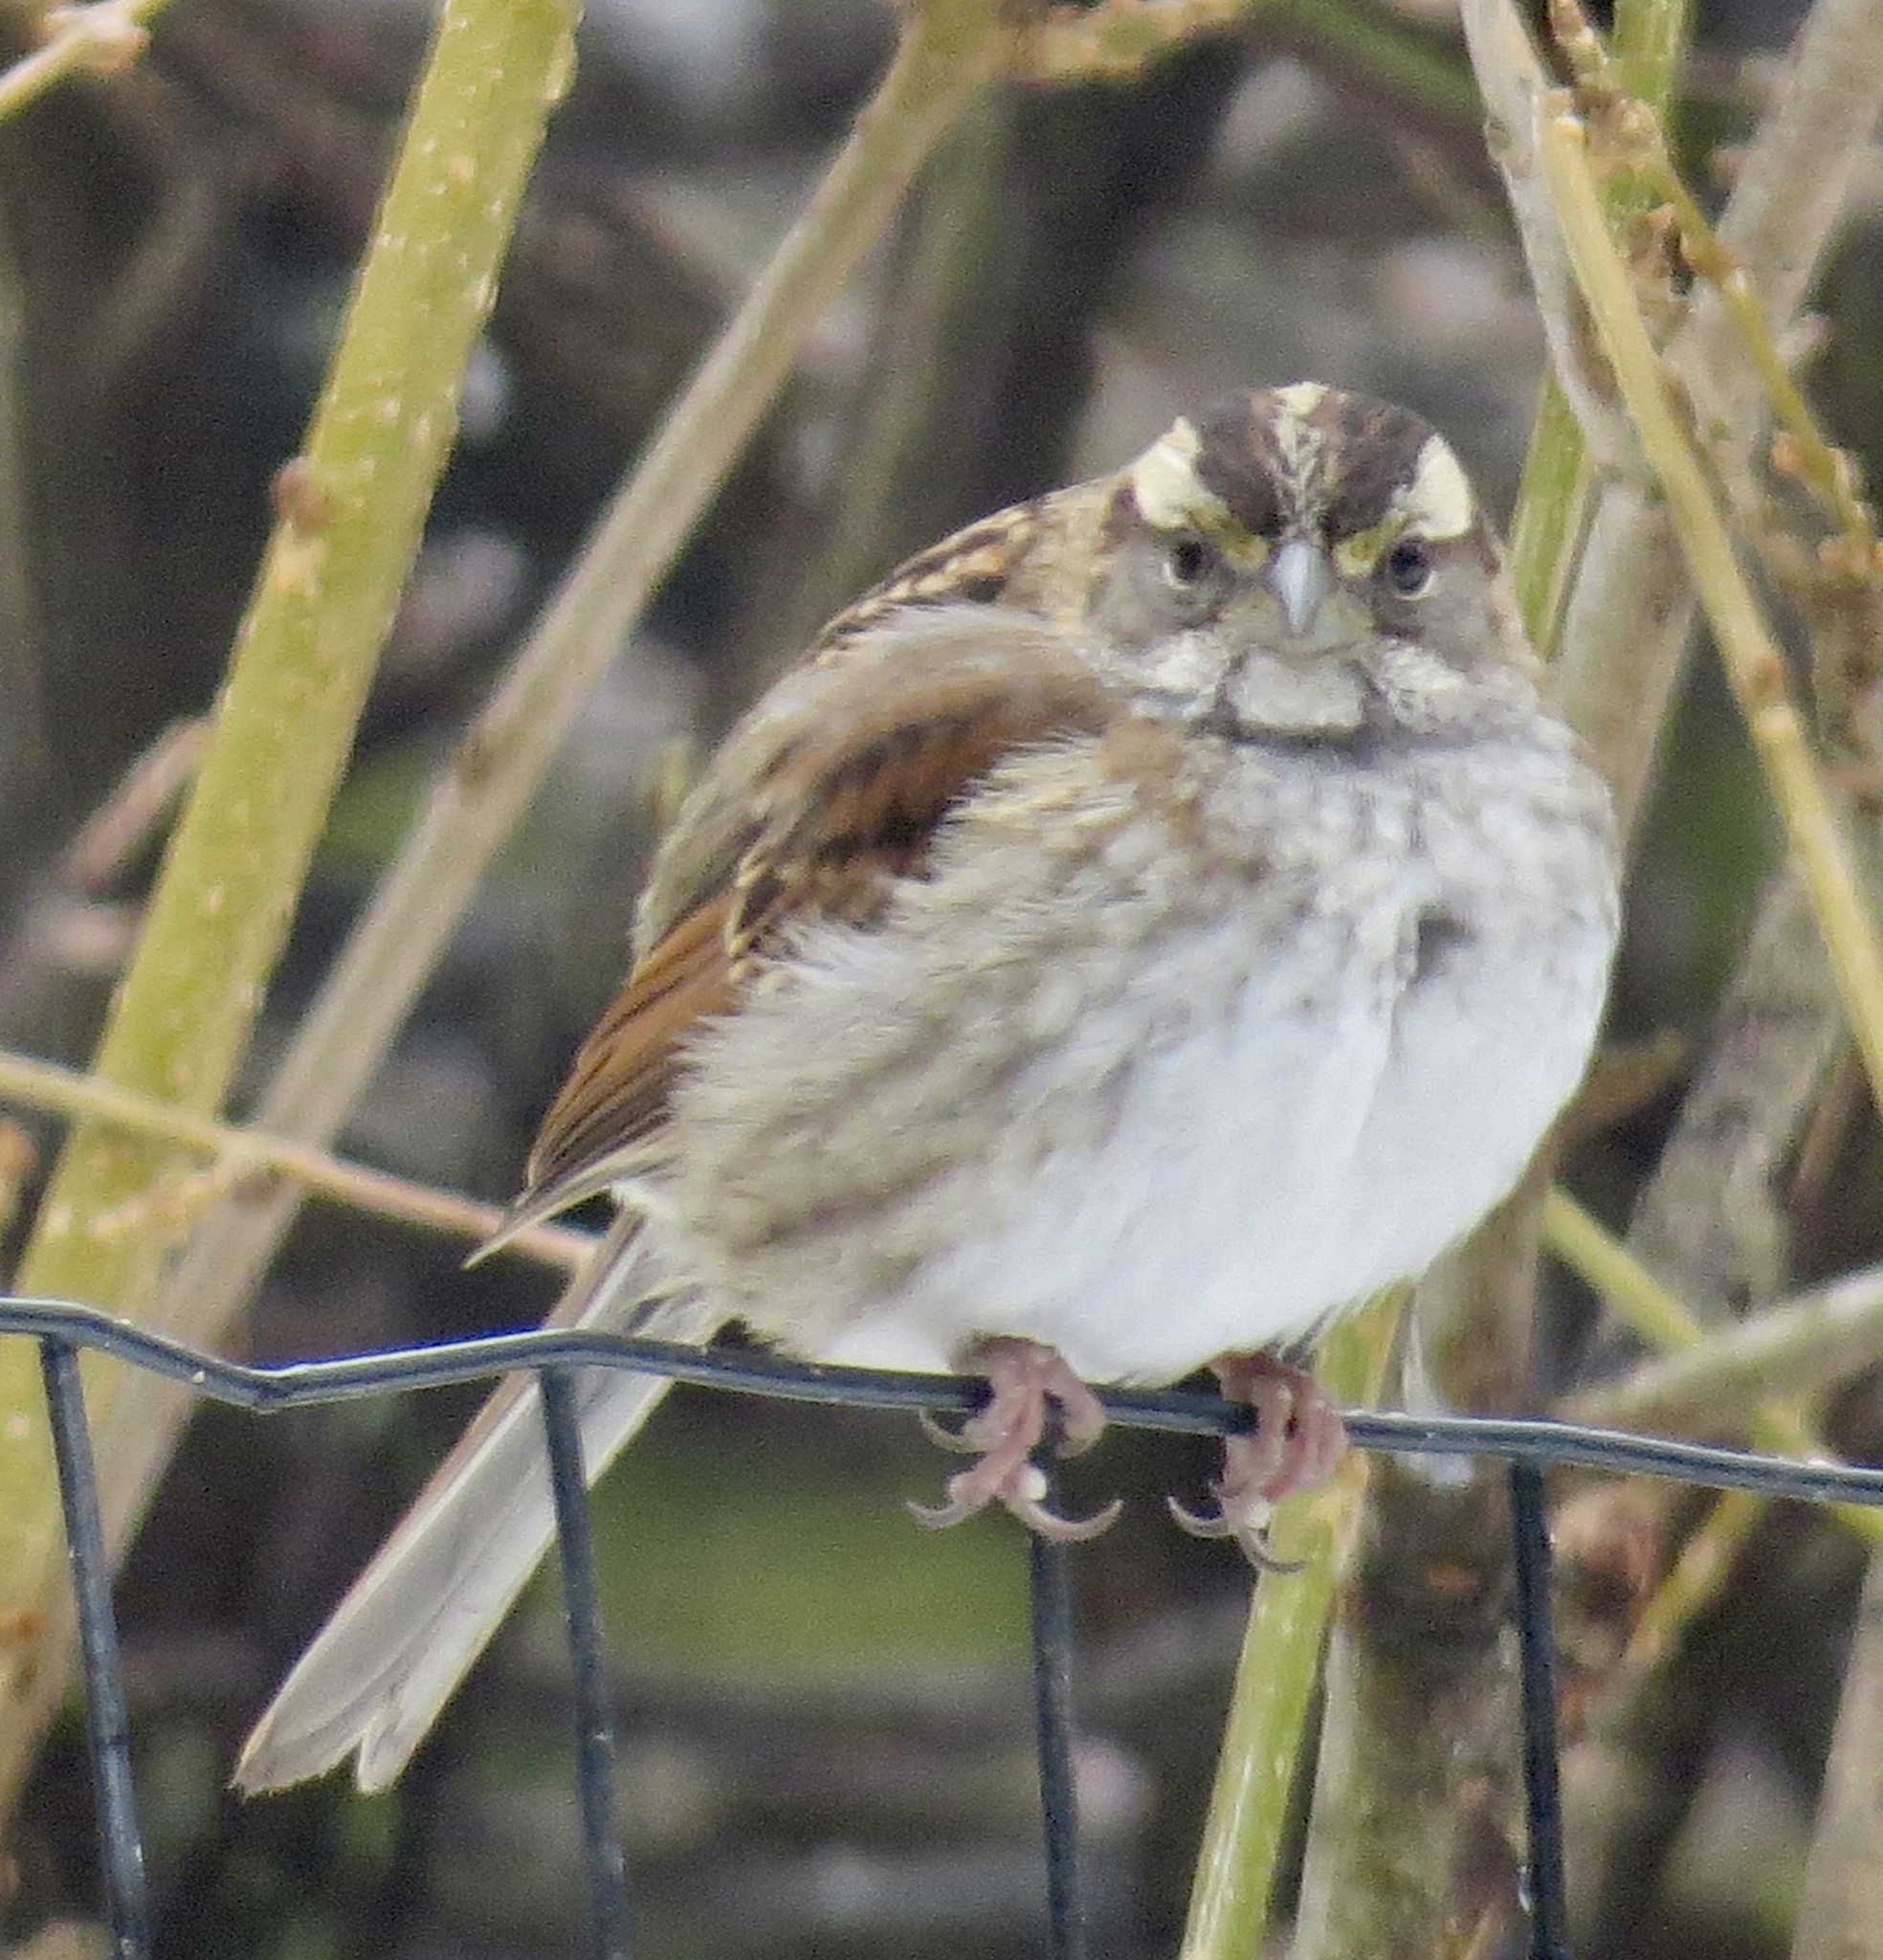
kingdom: Animalia
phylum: Chordata
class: Aves
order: Passeriformes
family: Passerellidae
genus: Zonotrichia
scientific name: Zonotrichia albicollis
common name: White-throated sparrow
